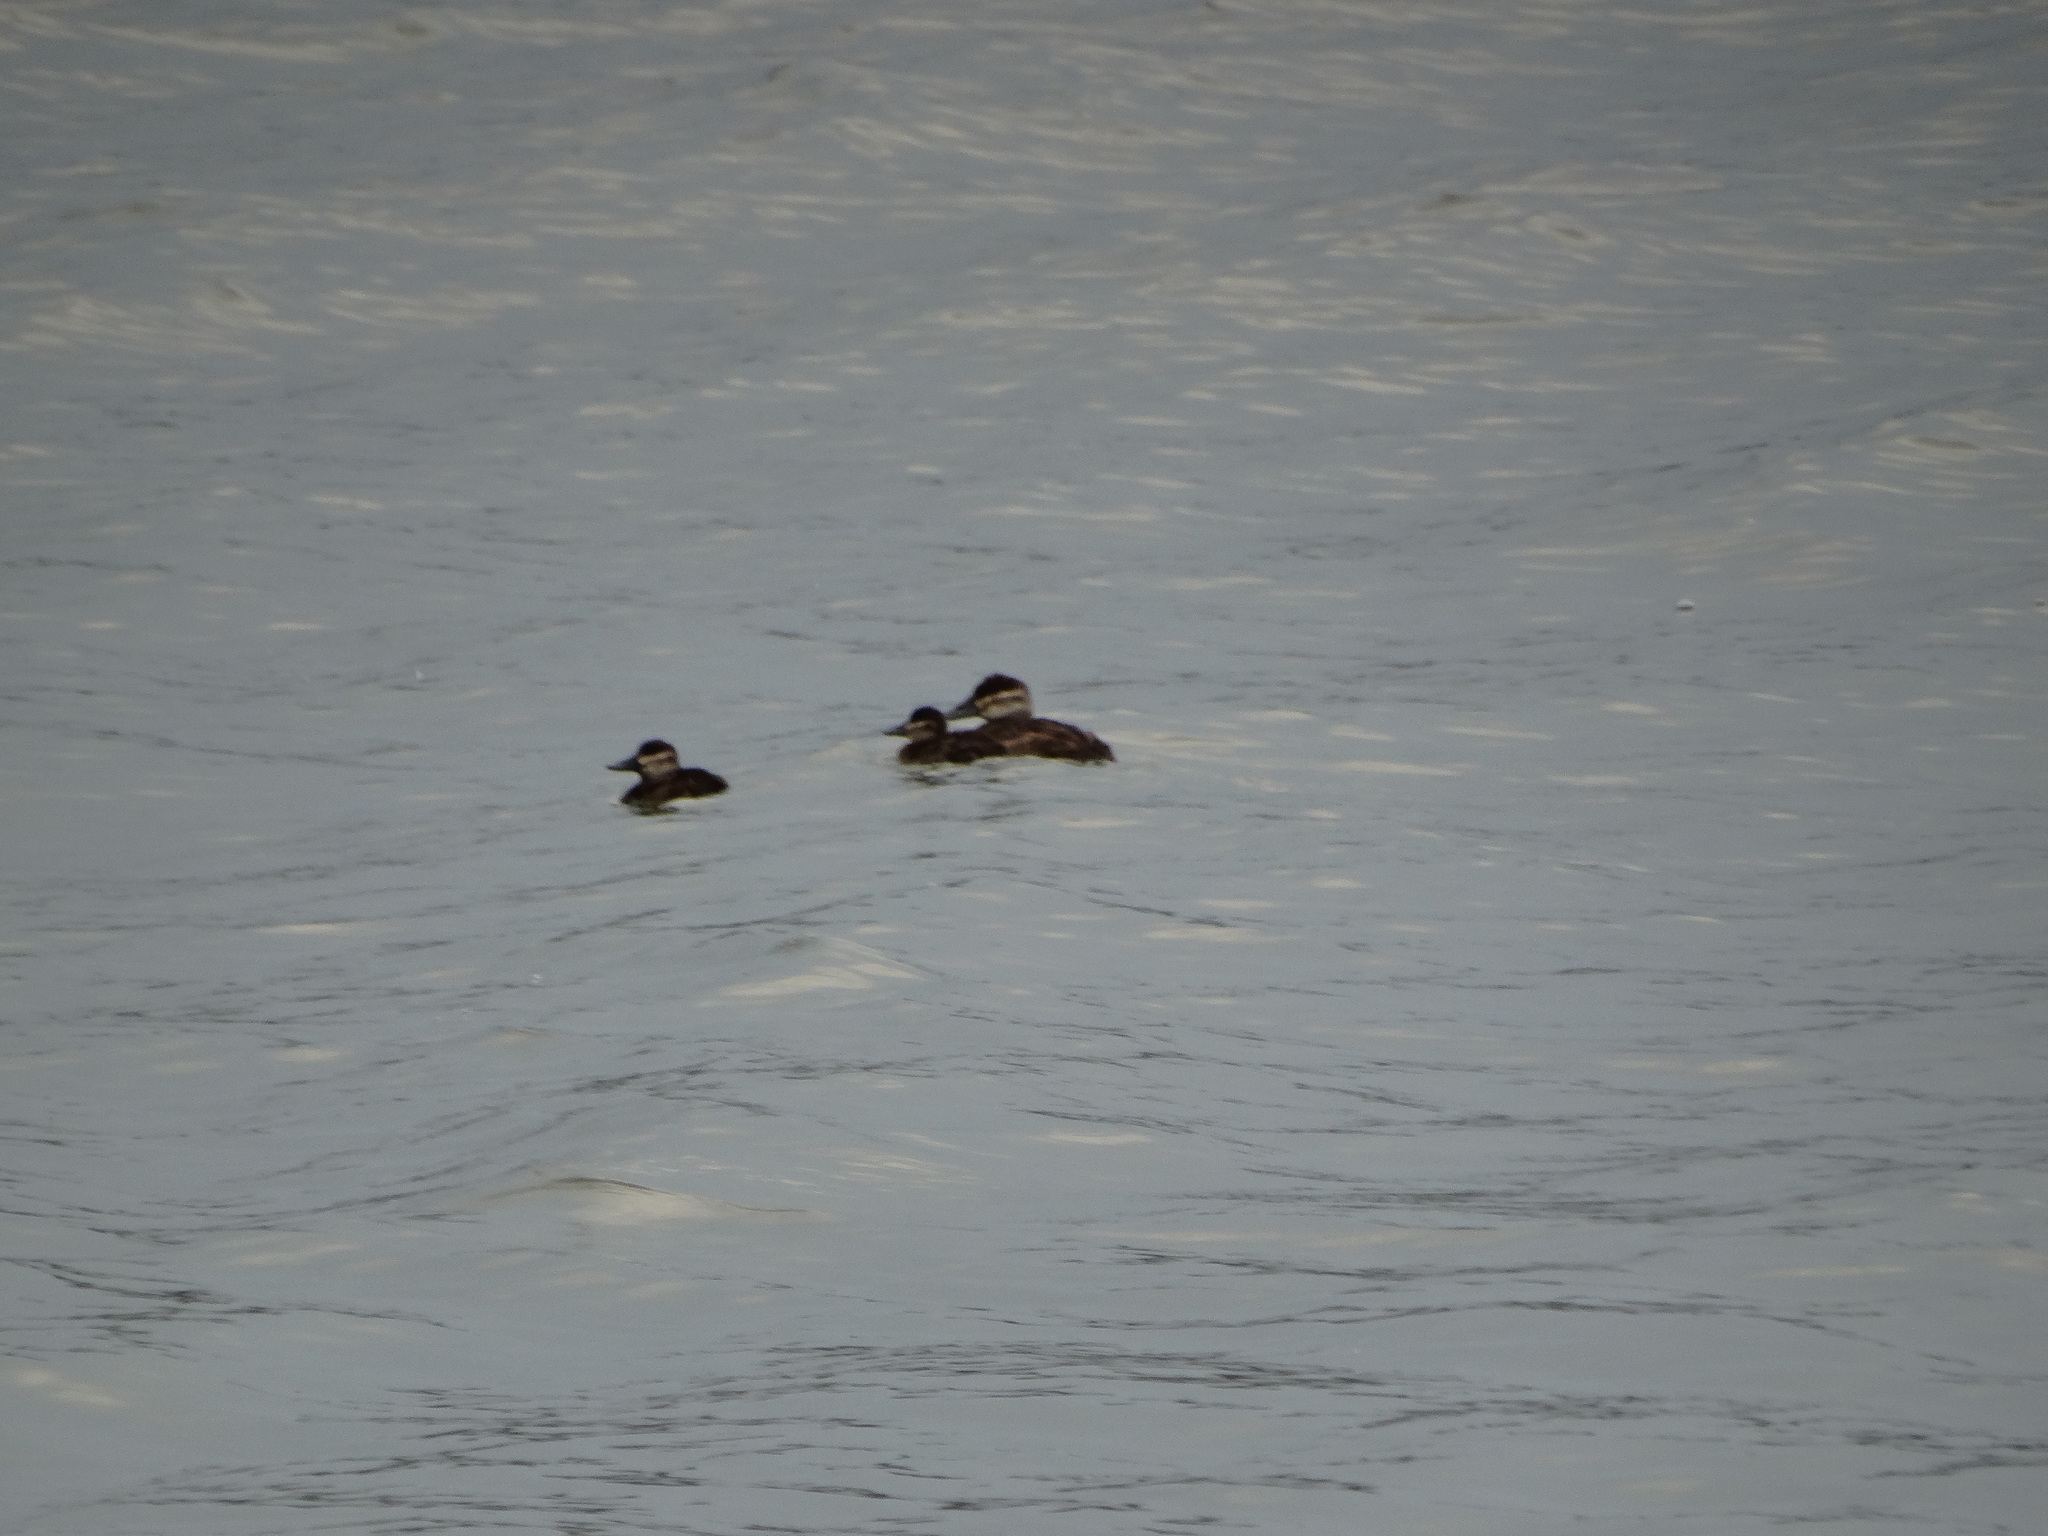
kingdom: Animalia
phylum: Chordata
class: Aves
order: Anseriformes
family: Anatidae
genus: Oxyura
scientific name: Oxyura jamaicensis
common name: Ruddy duck
